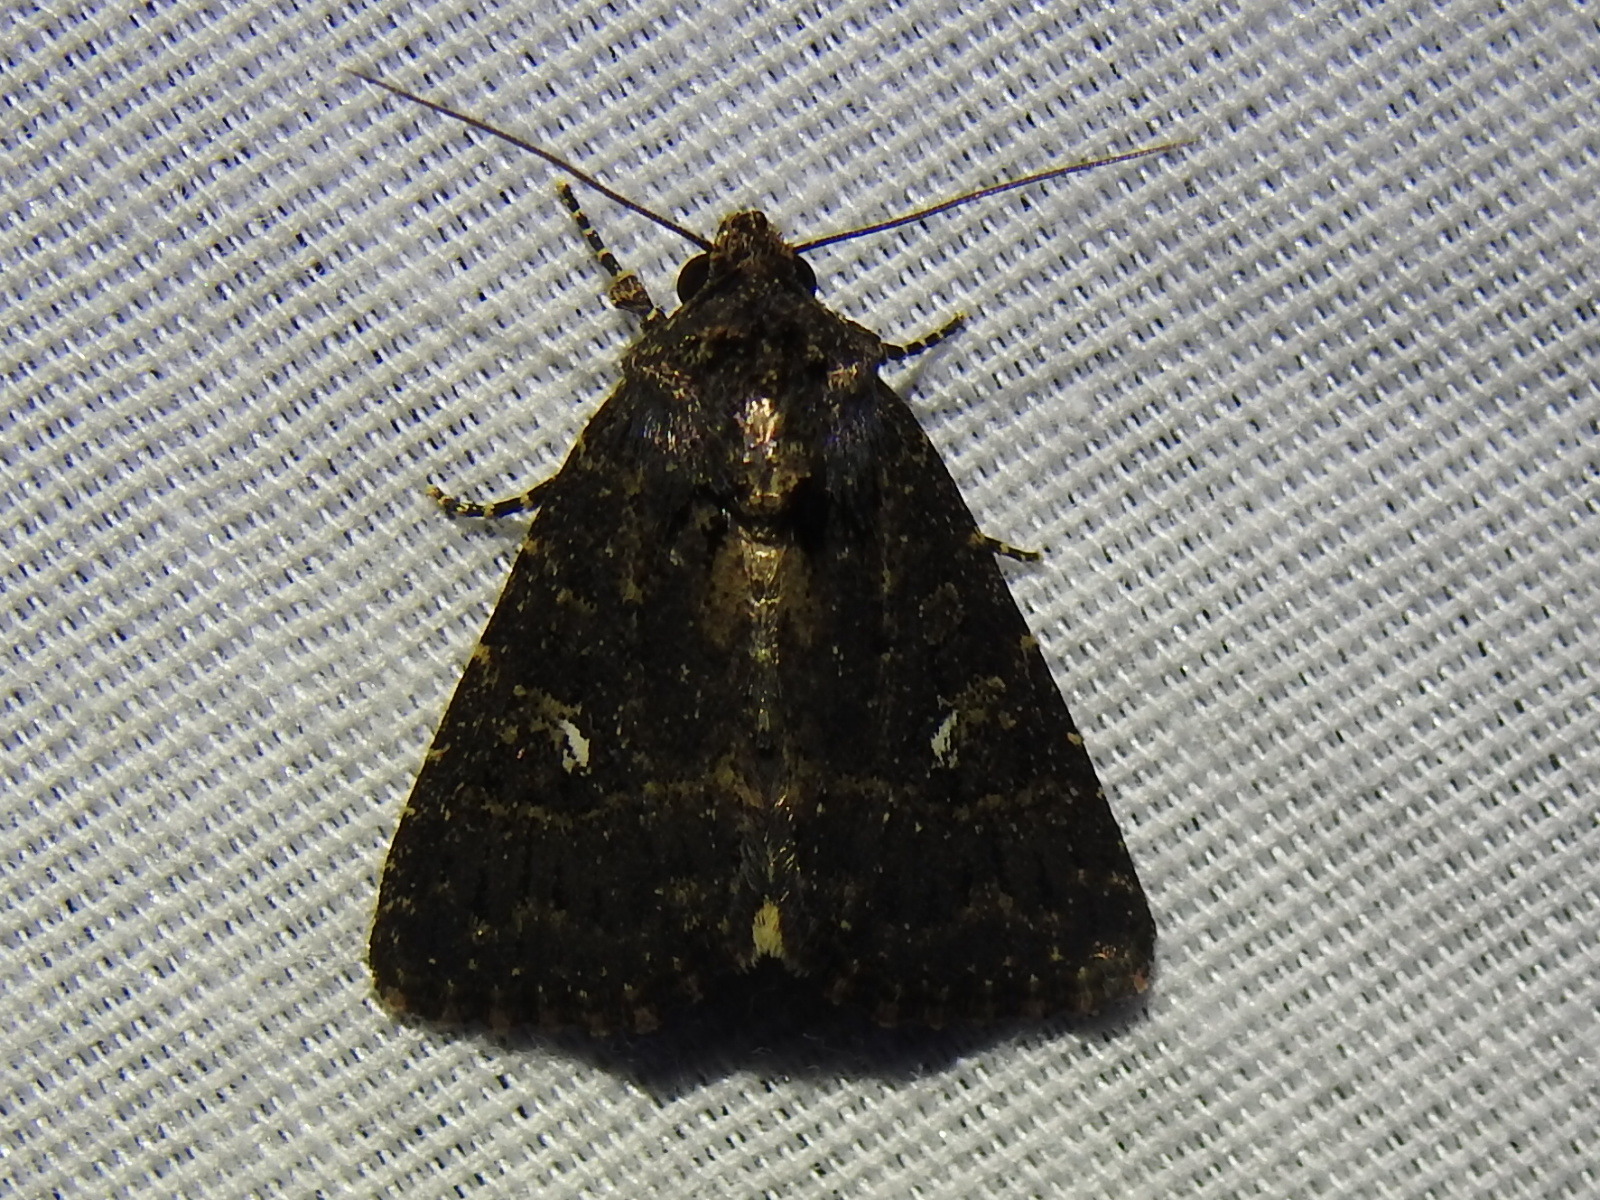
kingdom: Animalia
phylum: Arthropoda
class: Insecta
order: Lepidoptera
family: Erebidae
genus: Coxina
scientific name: Coxina cinctipalpis
